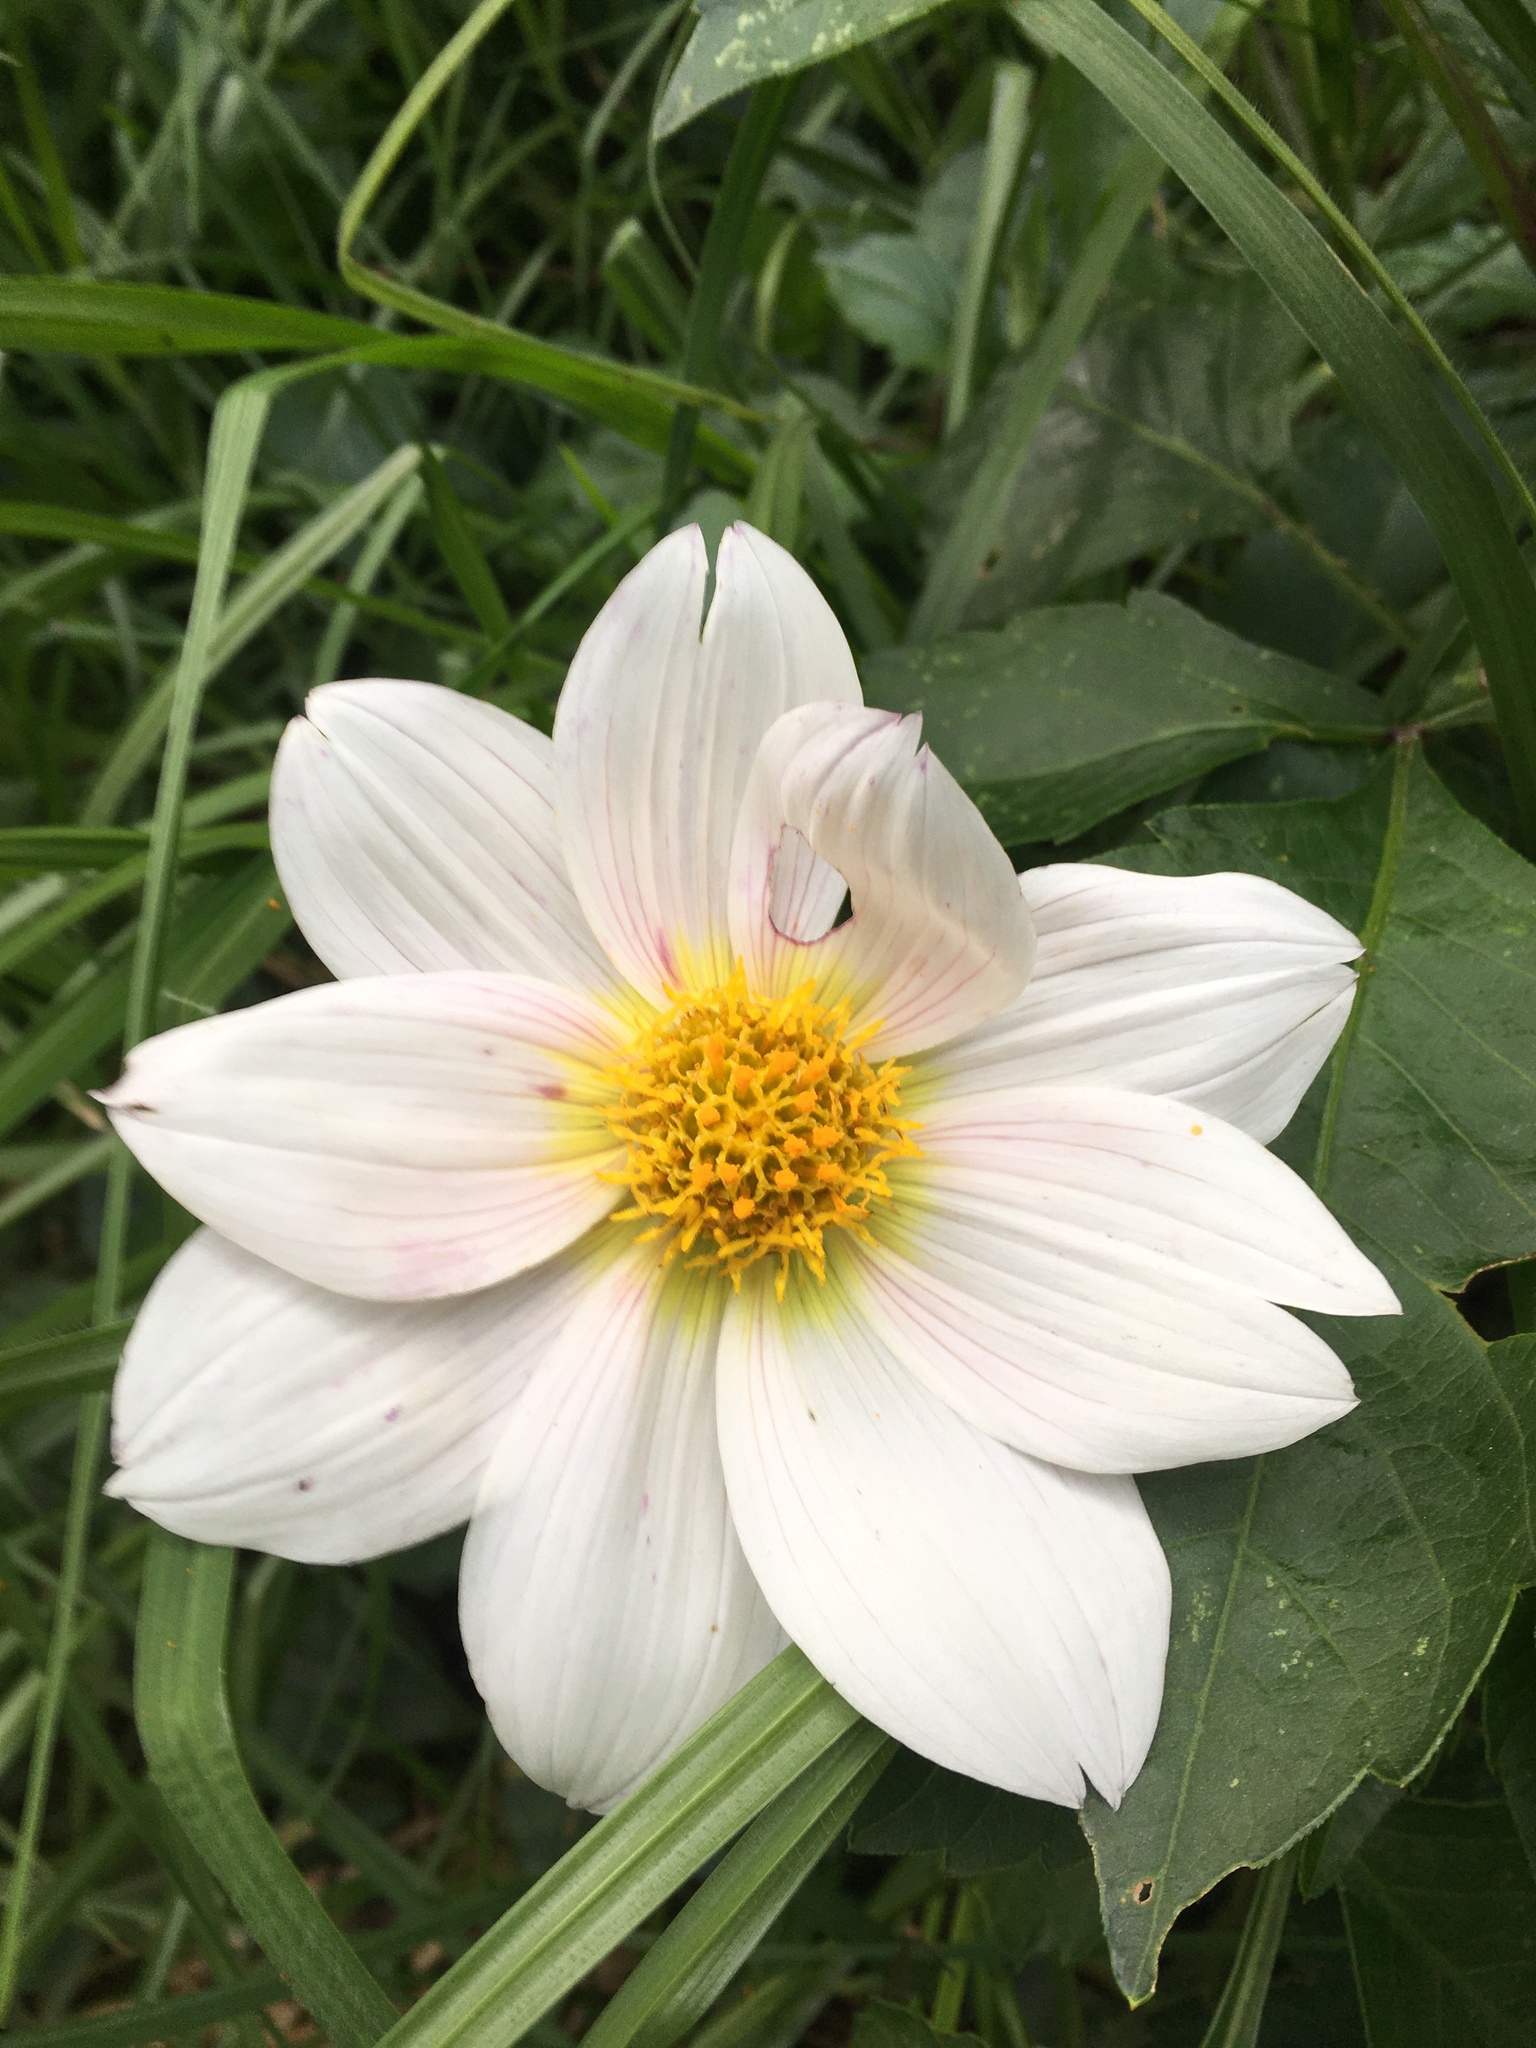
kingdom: Plantae
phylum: Tracheophyta
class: Magnoliopsida
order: Asterales
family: Asteraceae
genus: Dahlia
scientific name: Dahlia imperialis
